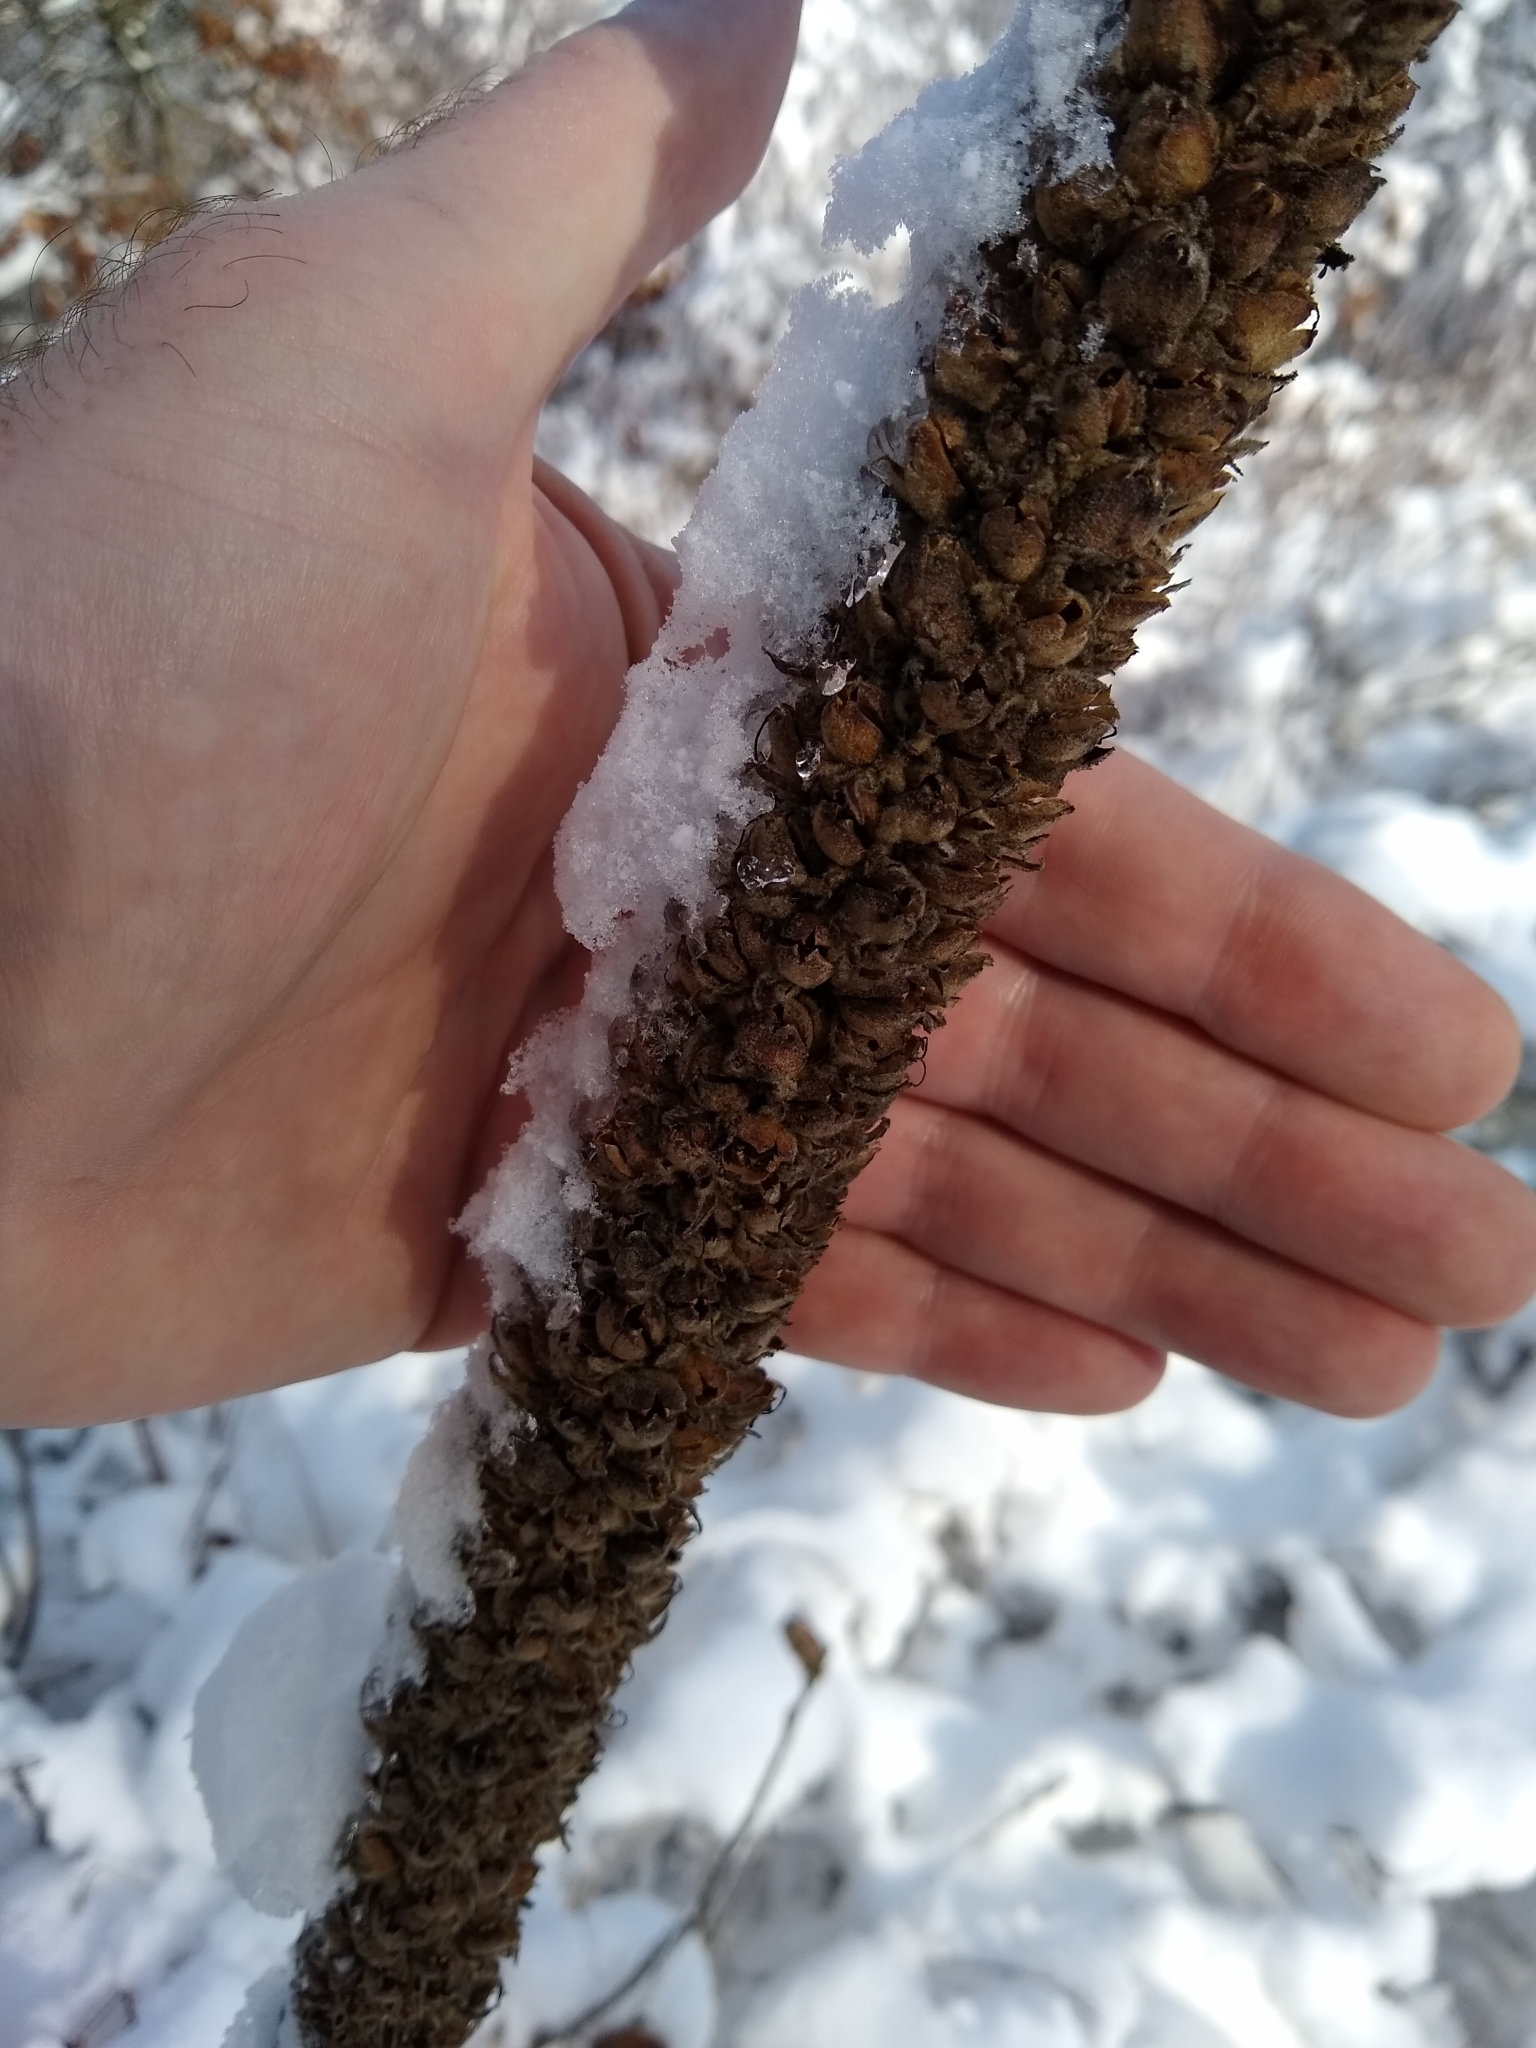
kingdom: Plantae
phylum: Tracheophyta
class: Magnoliopsida
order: Lamiales
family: Scrophulariaceae
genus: Verbascum
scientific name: Verbascum thapsus
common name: Common mullein
